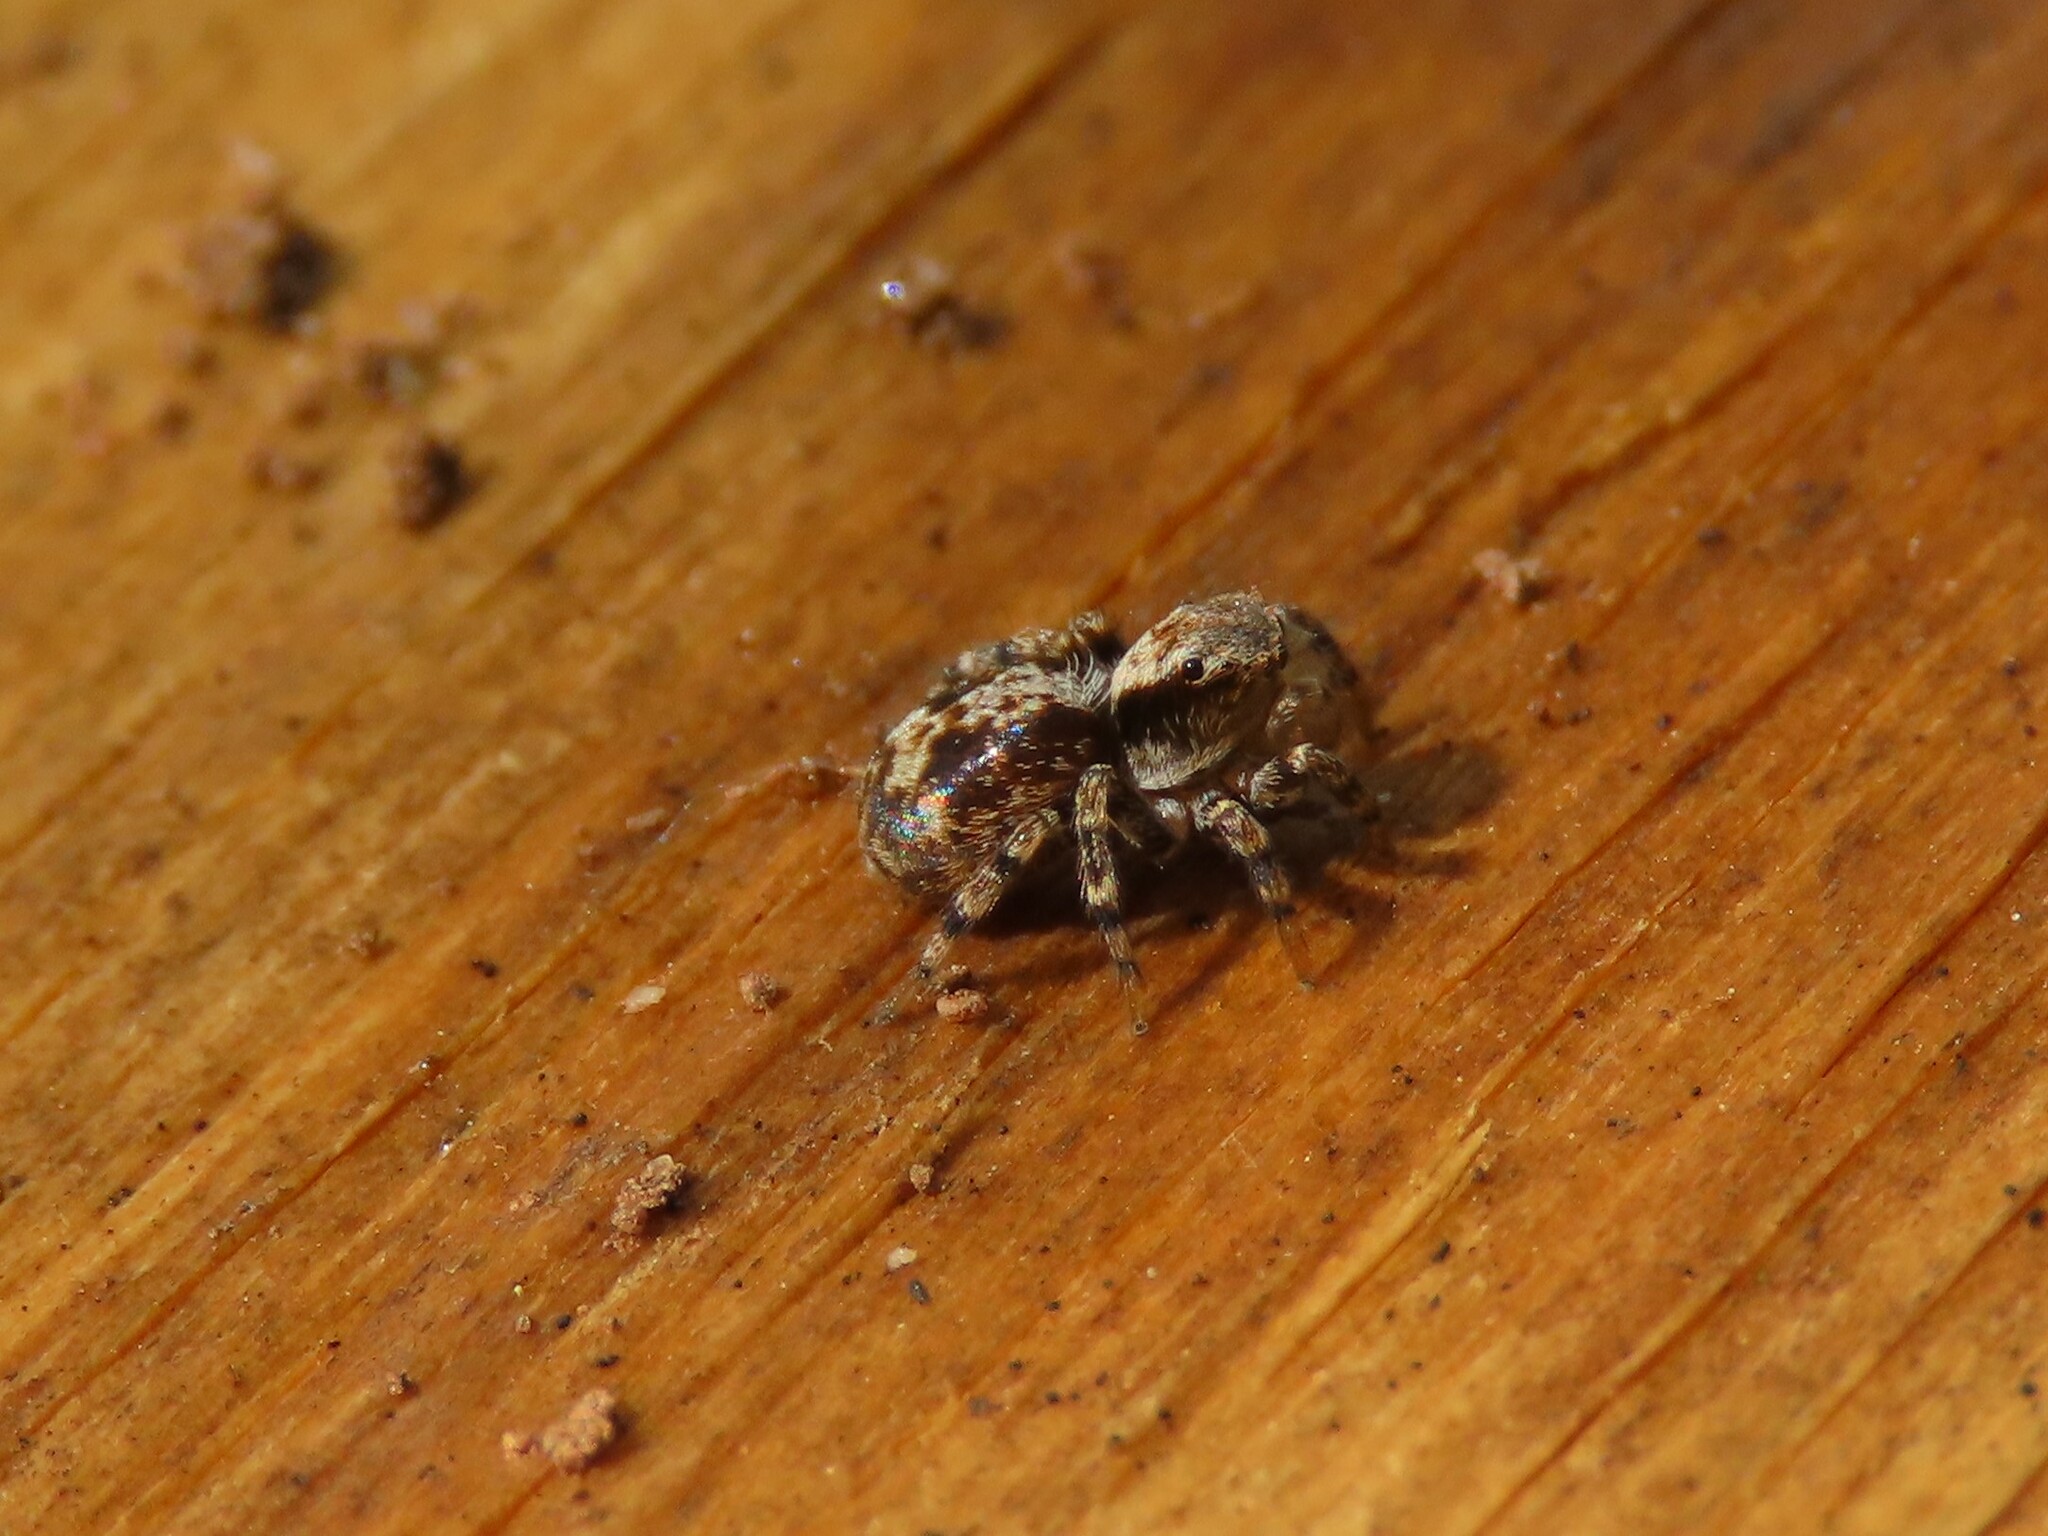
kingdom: Animalia
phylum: Arthropoda
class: Arachnida
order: Araneae
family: Salticidae
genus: Naphrys
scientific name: Naphrys pulex
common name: Flea jumping spider
